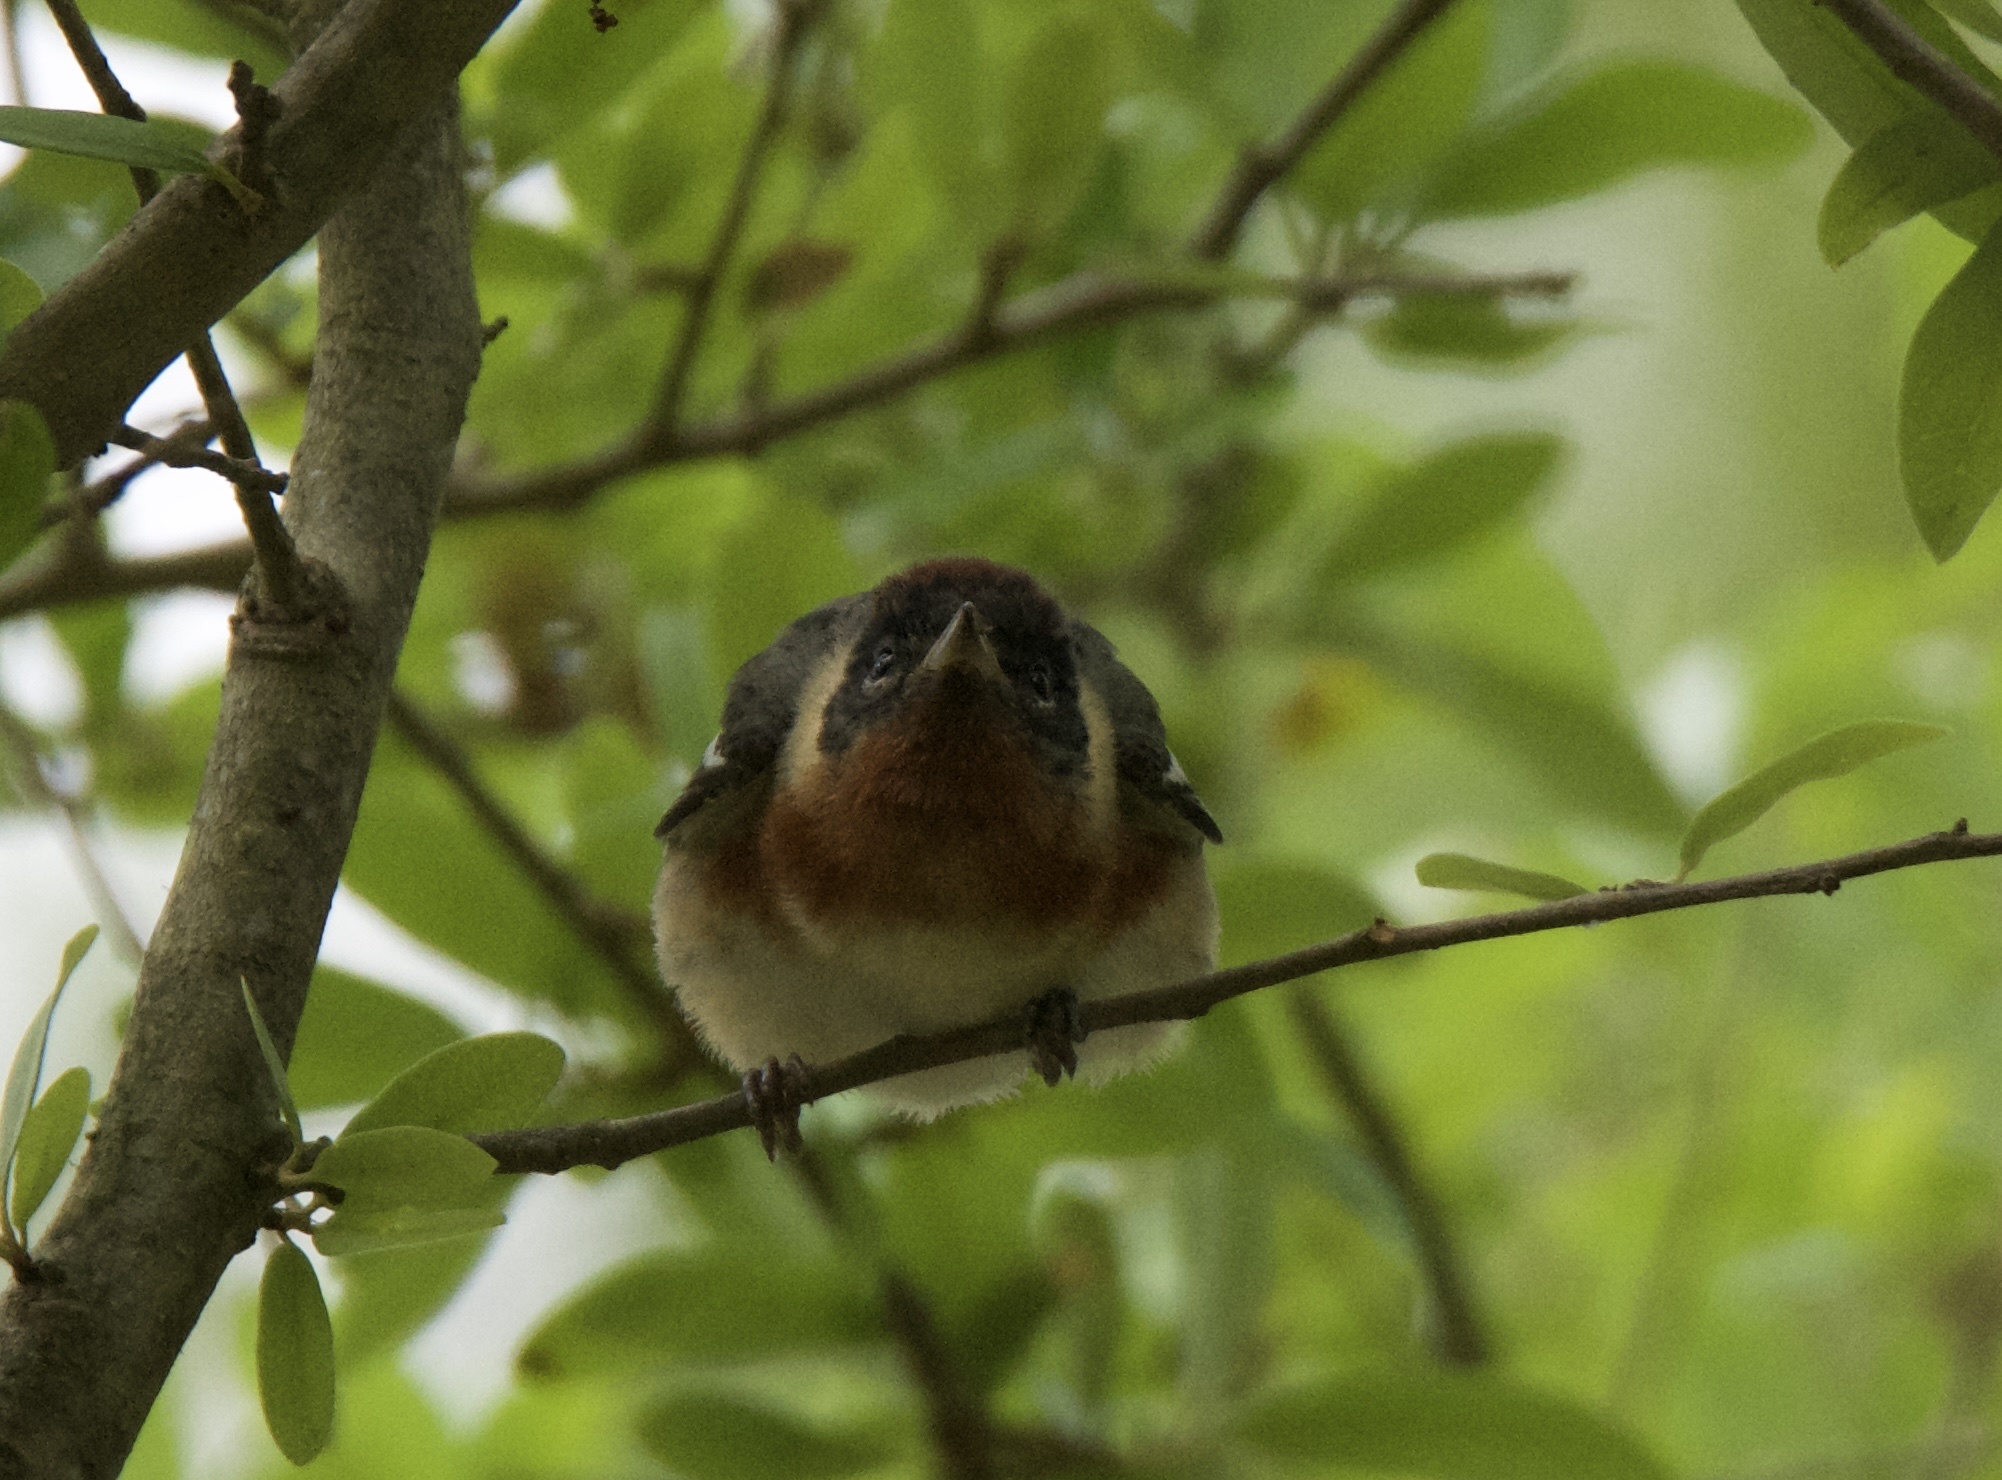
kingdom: Animalia
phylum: Chordata
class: Aves
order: Passeriformes
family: Parulidae
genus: Setophaga
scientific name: Setophaga castanea
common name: Bay-breasted warbler
